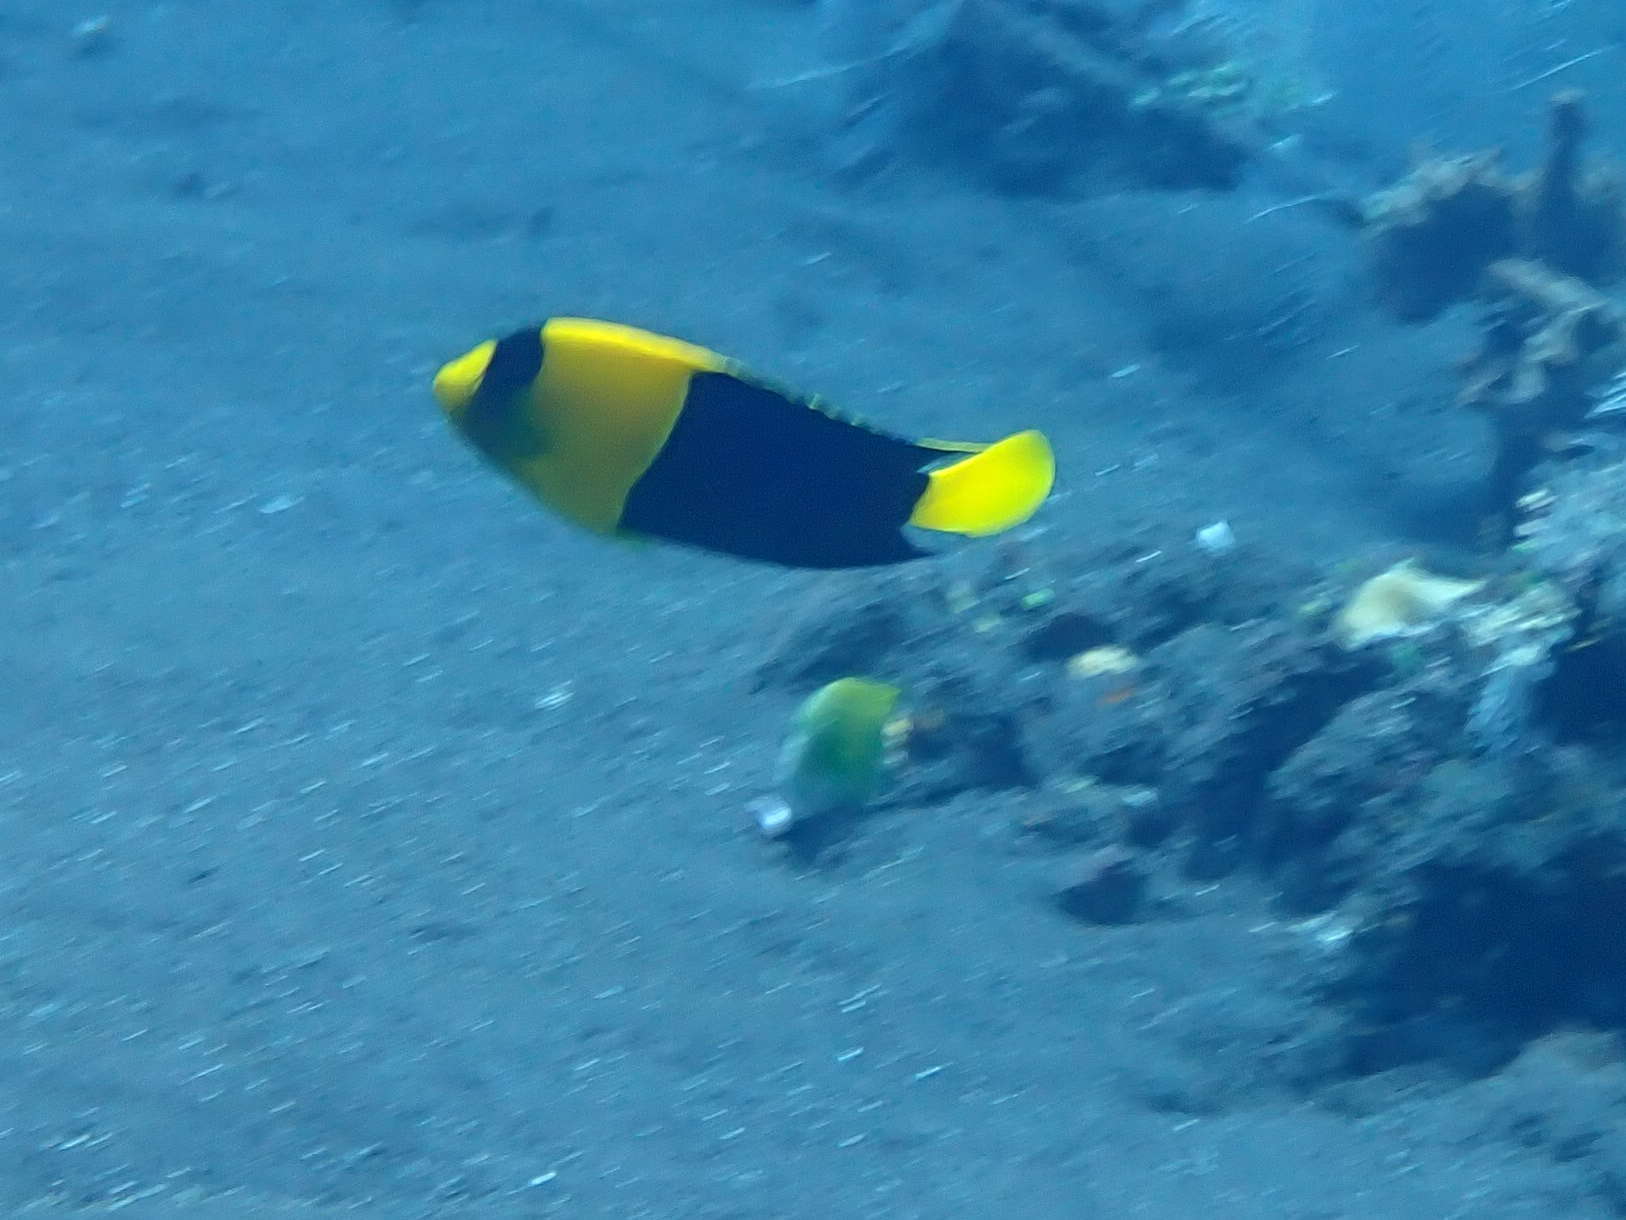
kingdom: Animalia
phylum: Chordata
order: Perciformes
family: Pomacanthidae
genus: Centropyge
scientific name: Centropyge bicolor
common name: Bicolor angelfish
